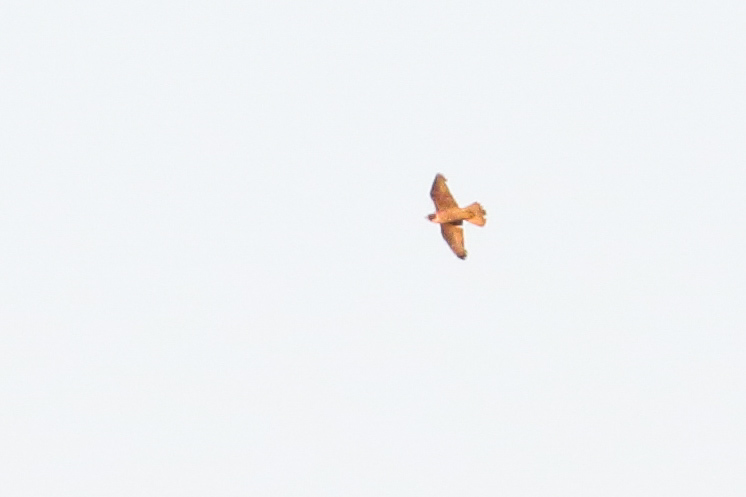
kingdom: Animalia
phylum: Chordata
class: Aves
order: Falconiformes
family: Falconidae
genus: Falco
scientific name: Falco peregrinus
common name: Peregrine falcon
